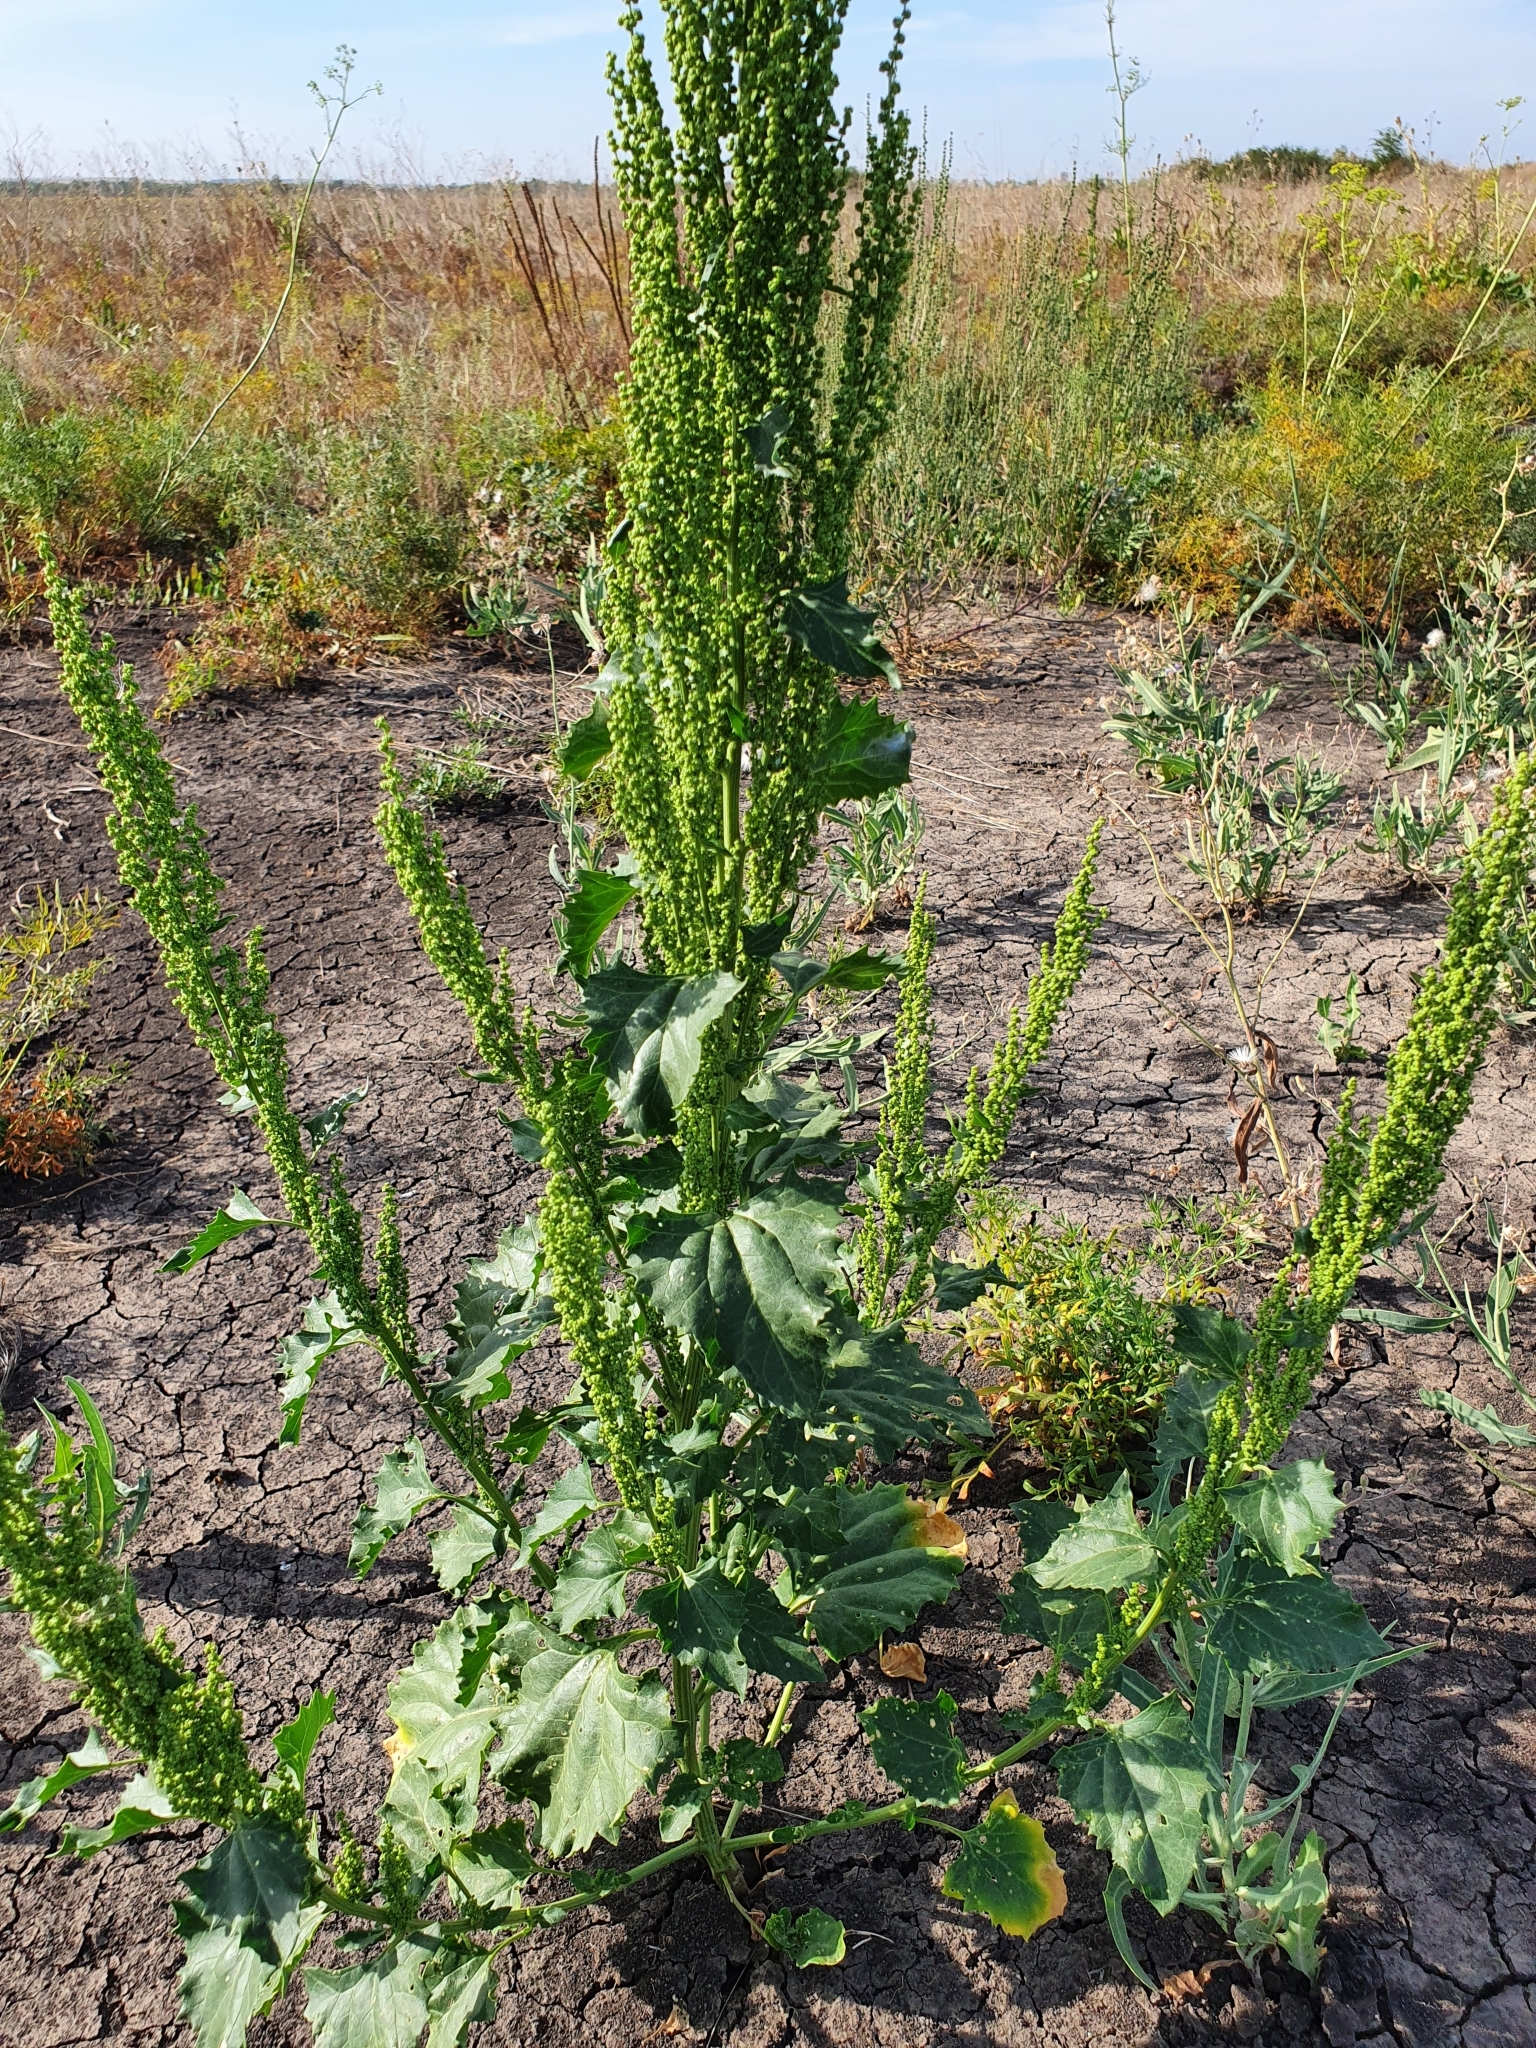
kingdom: Plantae
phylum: Tracheophyta
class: Magnoliopsida
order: Caryophyllales
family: Amaranthaceae
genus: Oxybasis
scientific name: Oxybasis urbica
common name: City goosefoot
